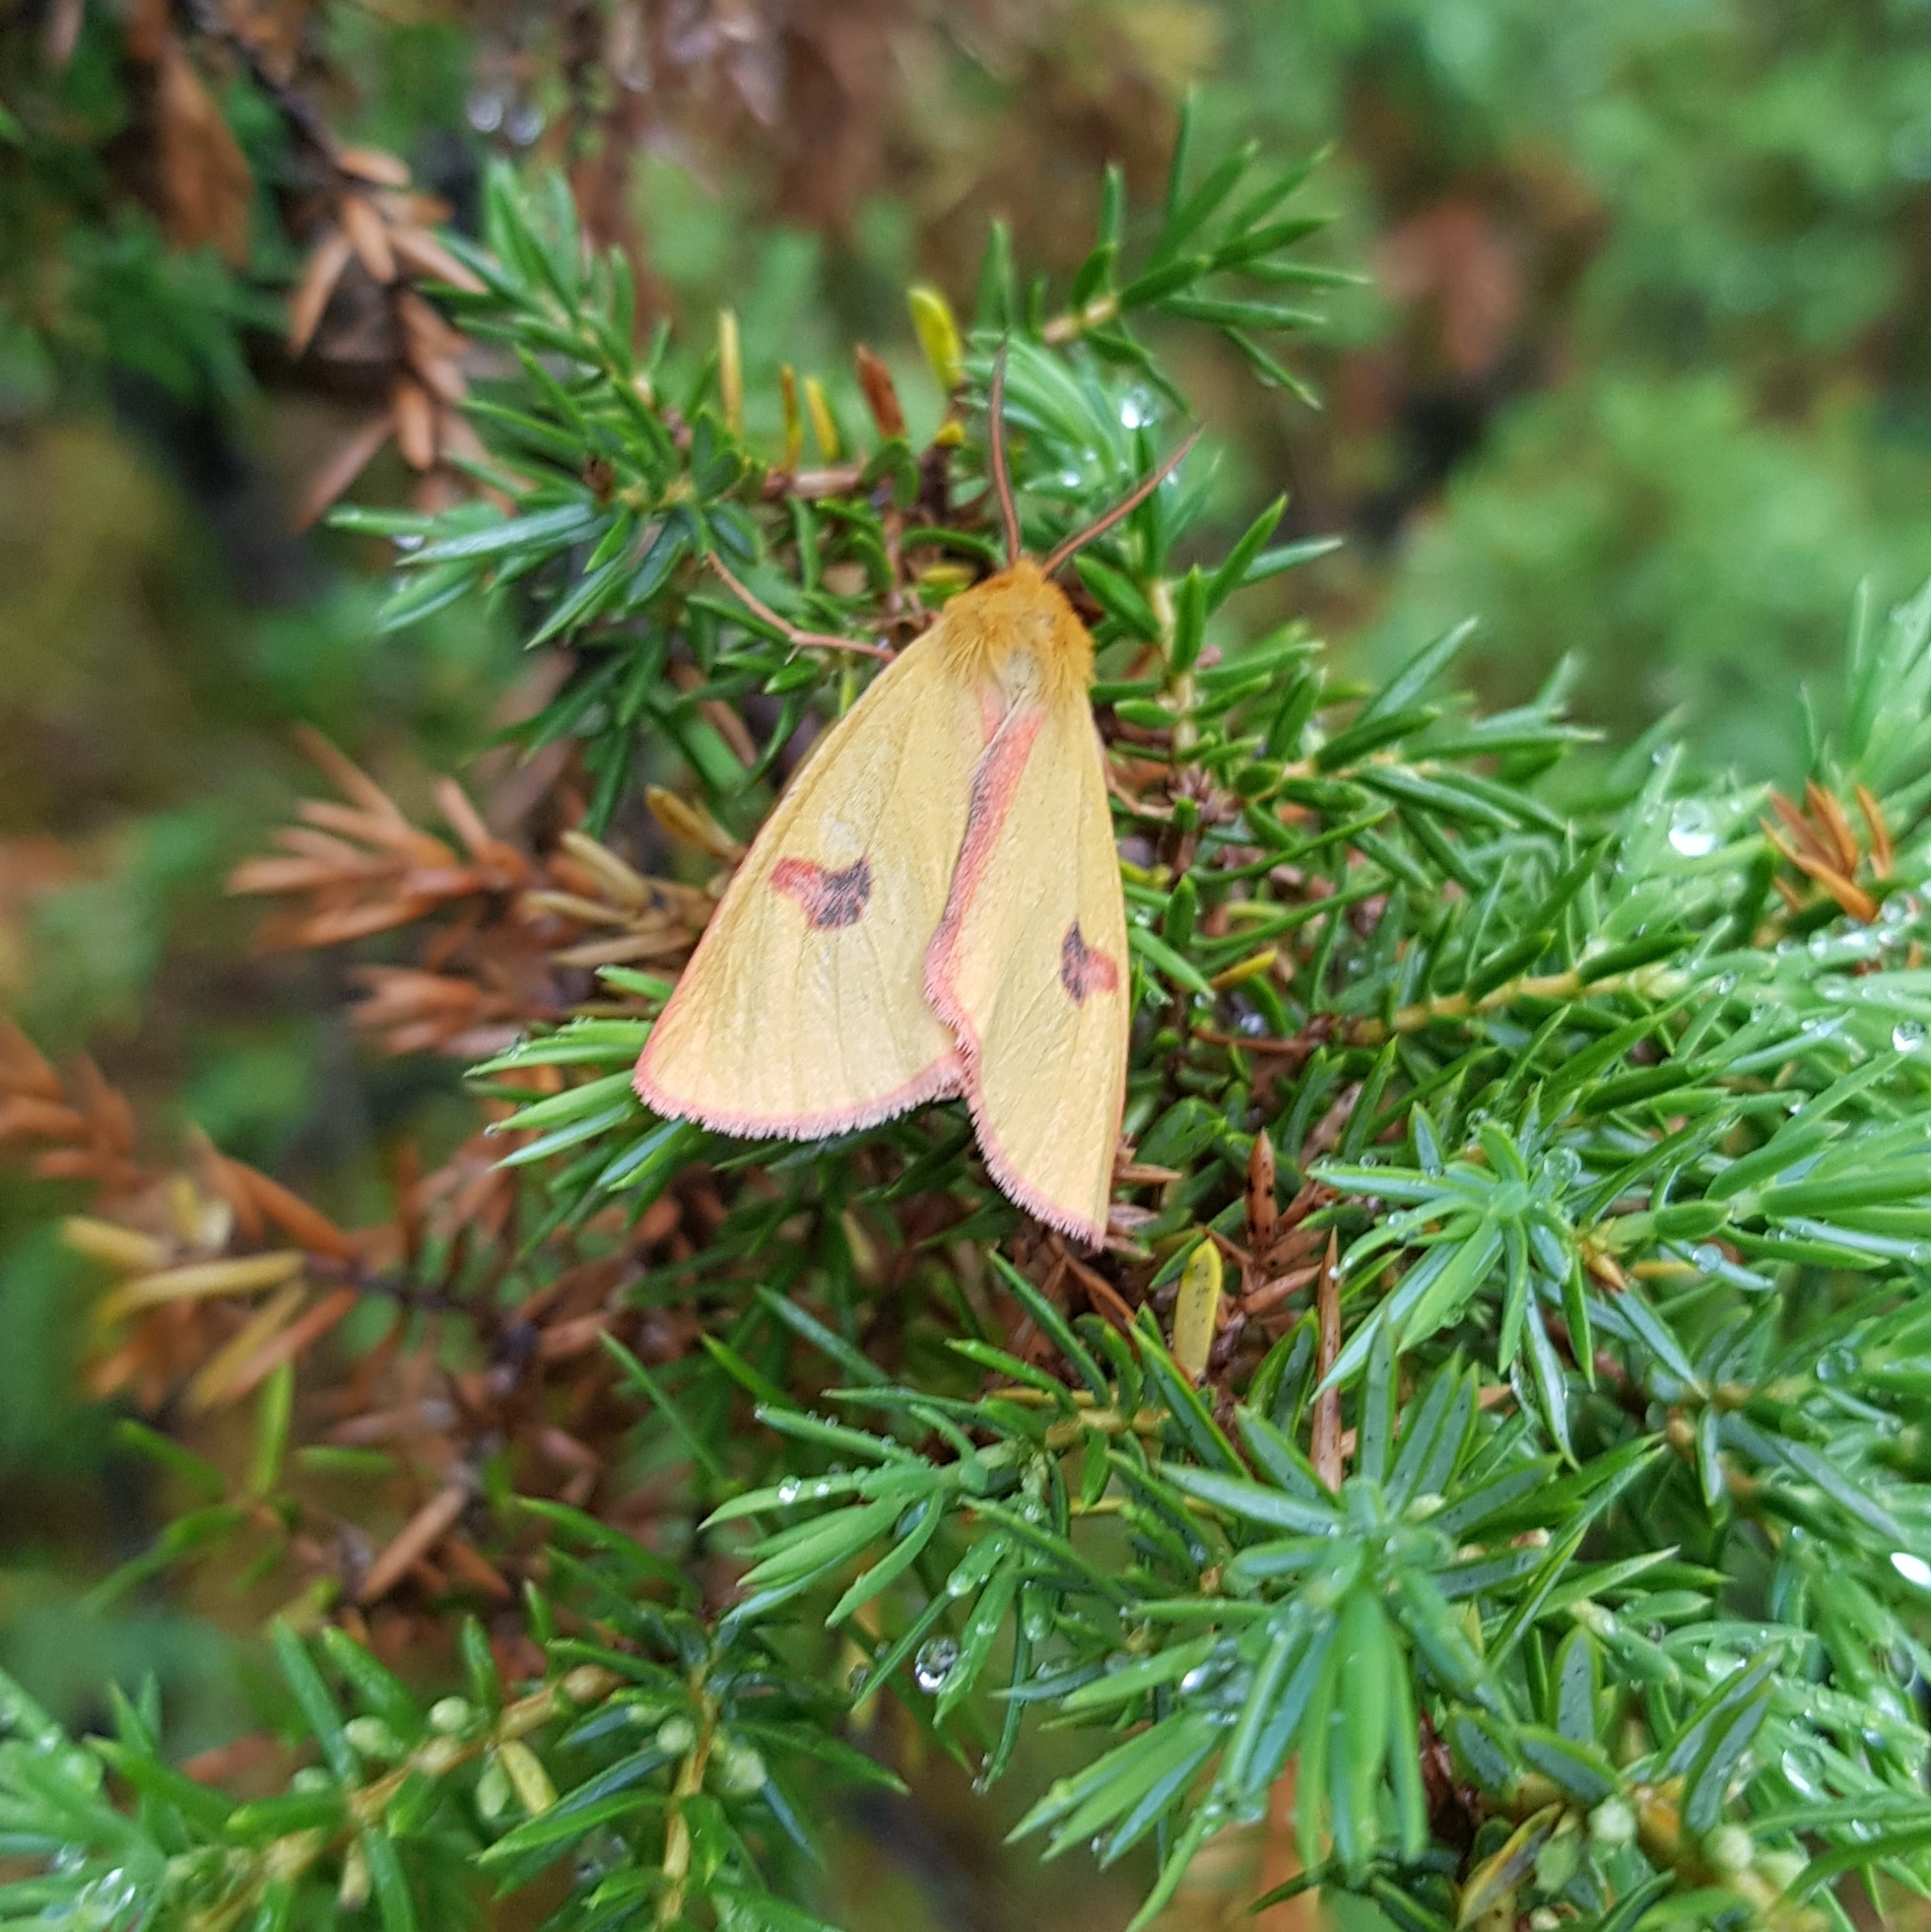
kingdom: Animalia
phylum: Arthropoda
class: Insecta
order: Lepidoptera
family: Erebidae
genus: Diacrisia
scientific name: Diacrisia sannio
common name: Clouded buff
